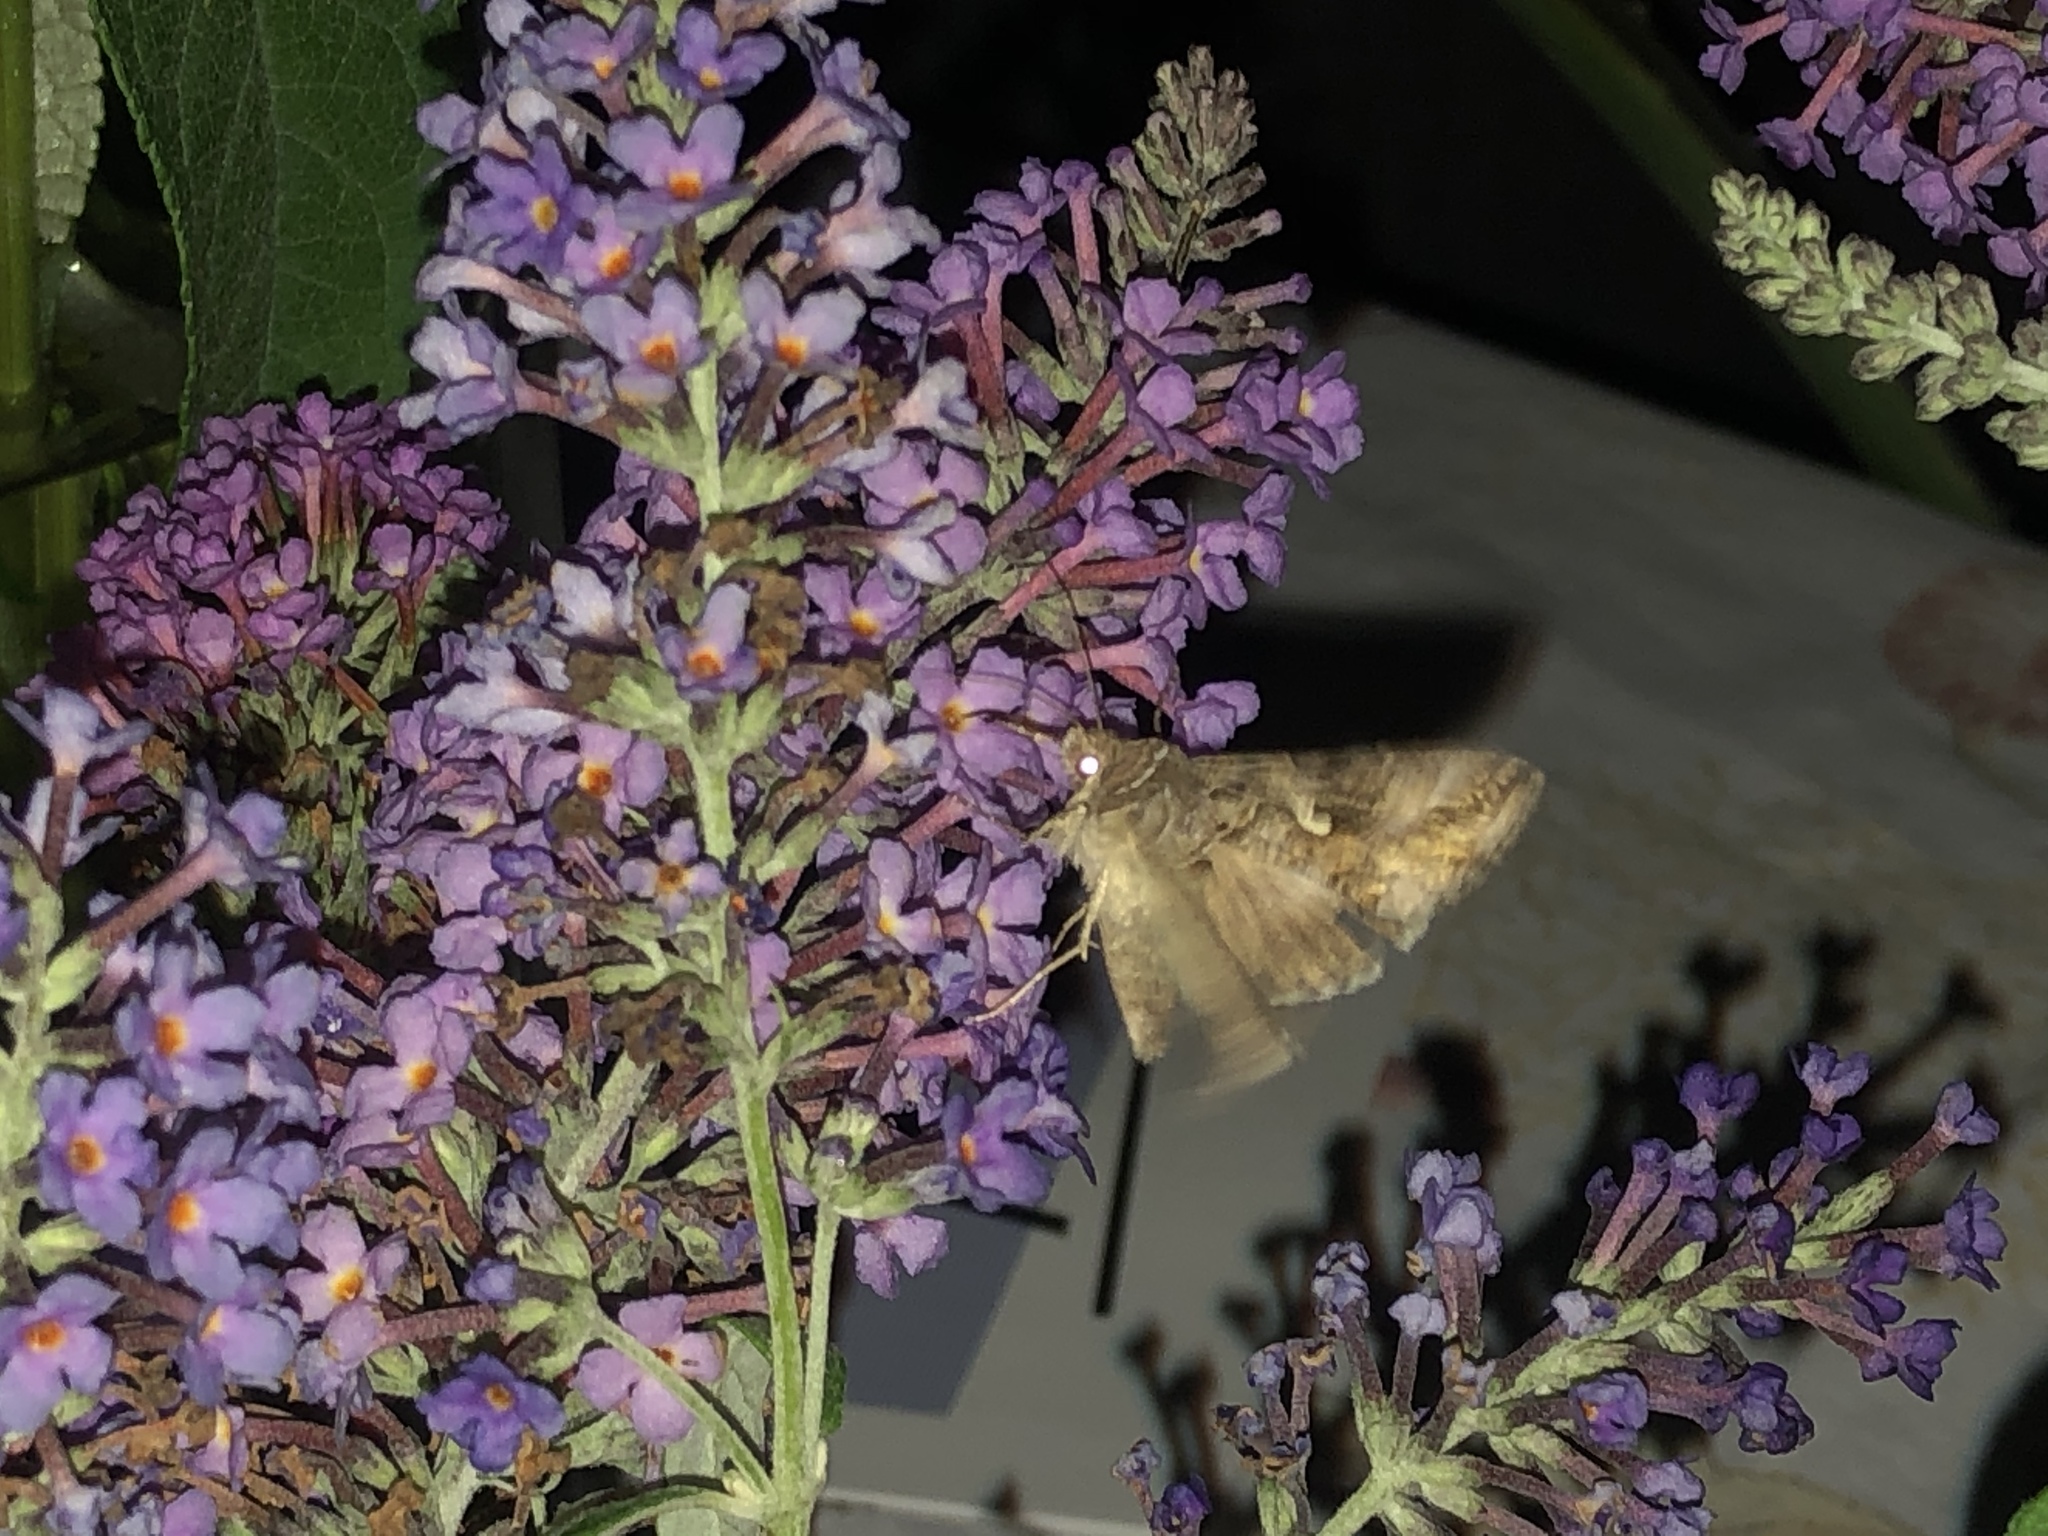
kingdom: Animalia
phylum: Arthropoda
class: Insecta
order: Lepidoptera
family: Noctuidae
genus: Autographa
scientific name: Autographa gamma
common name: Silver y
